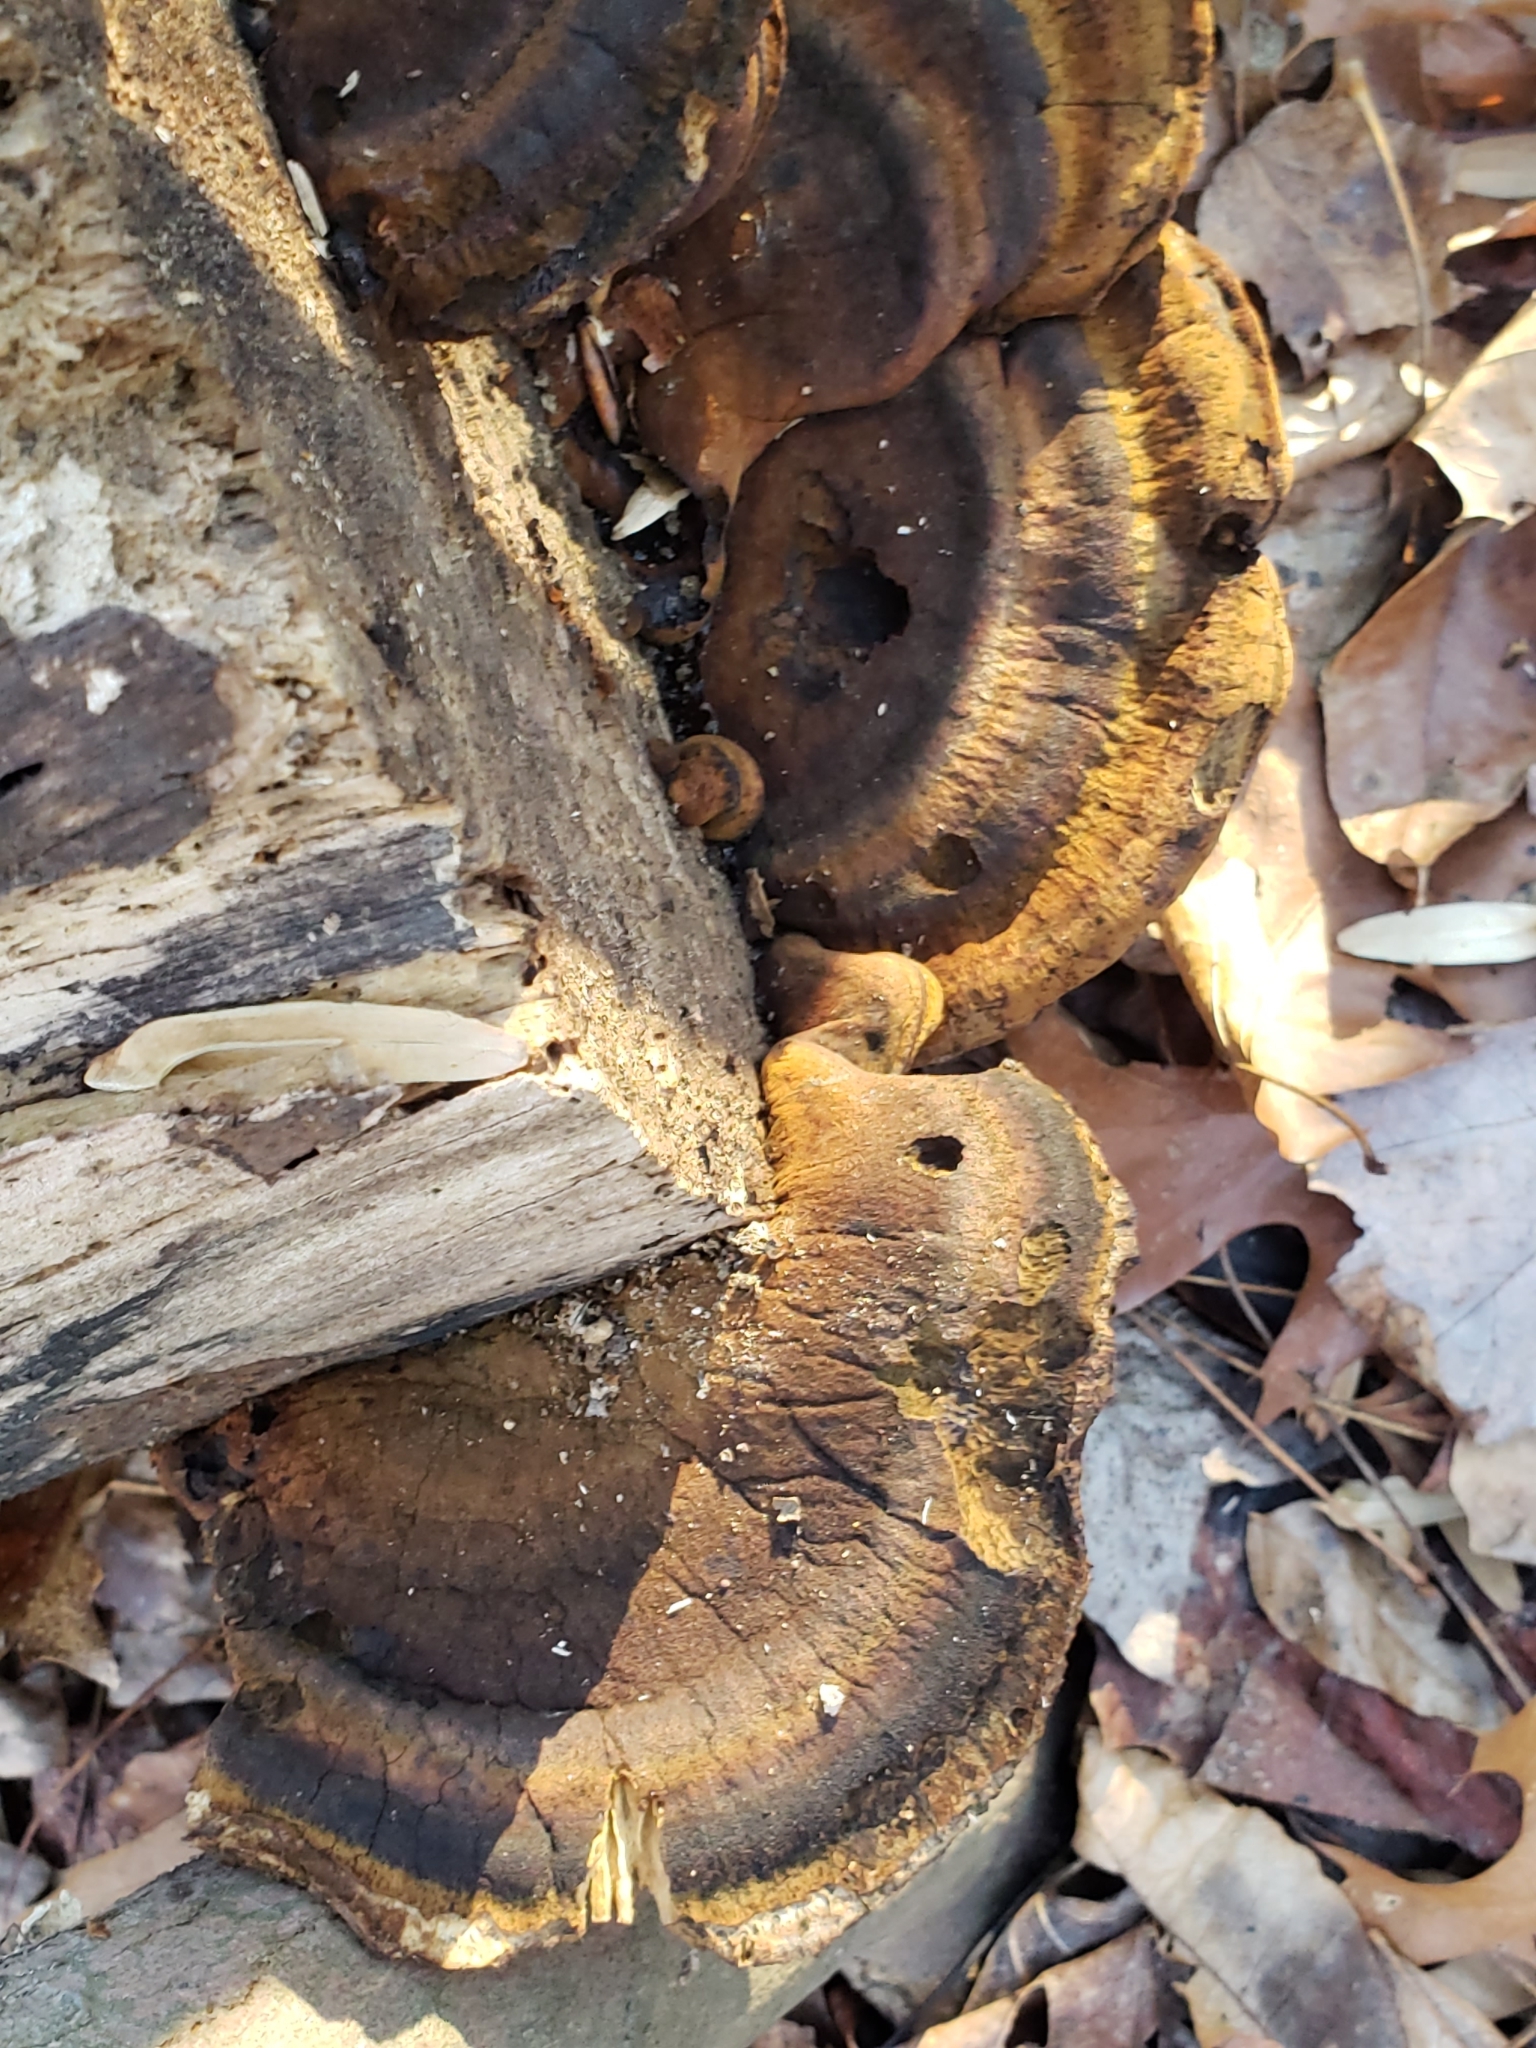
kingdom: Fungi
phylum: Basidiomycota
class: Agaricomycetes
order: Polyporales
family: Ischnodermataceae
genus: Ischnoderma
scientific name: Ischnoderma resinosum
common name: Resinous polypore
